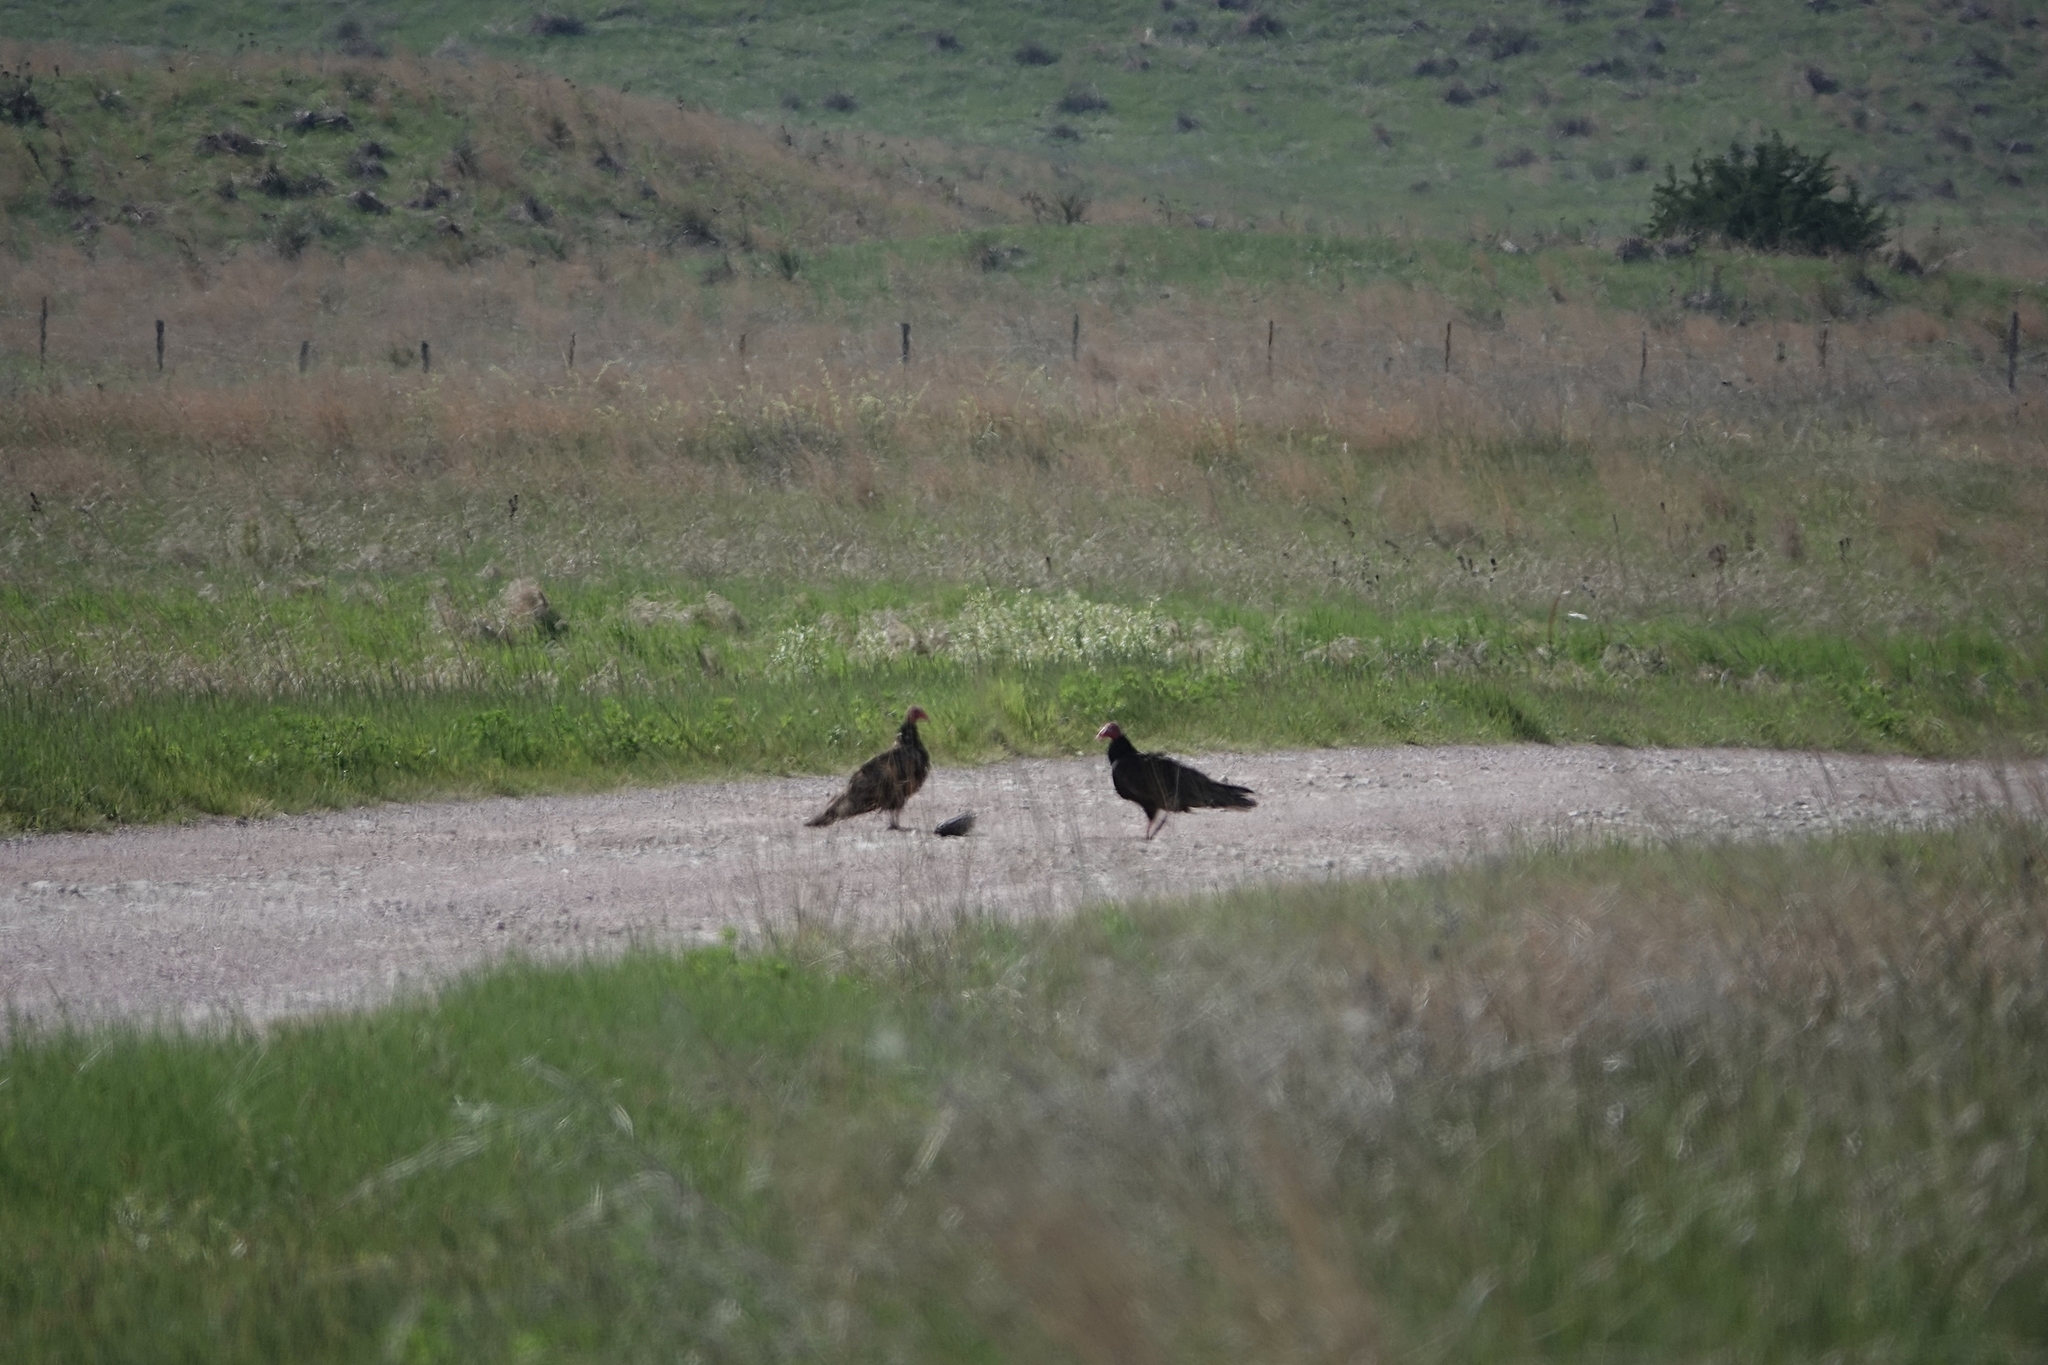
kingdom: Animalia
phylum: Chordata
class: Aves
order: Accipitriformes
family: Cathartidae
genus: Cathartes
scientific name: Cathartes aura
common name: Turkey vulture
